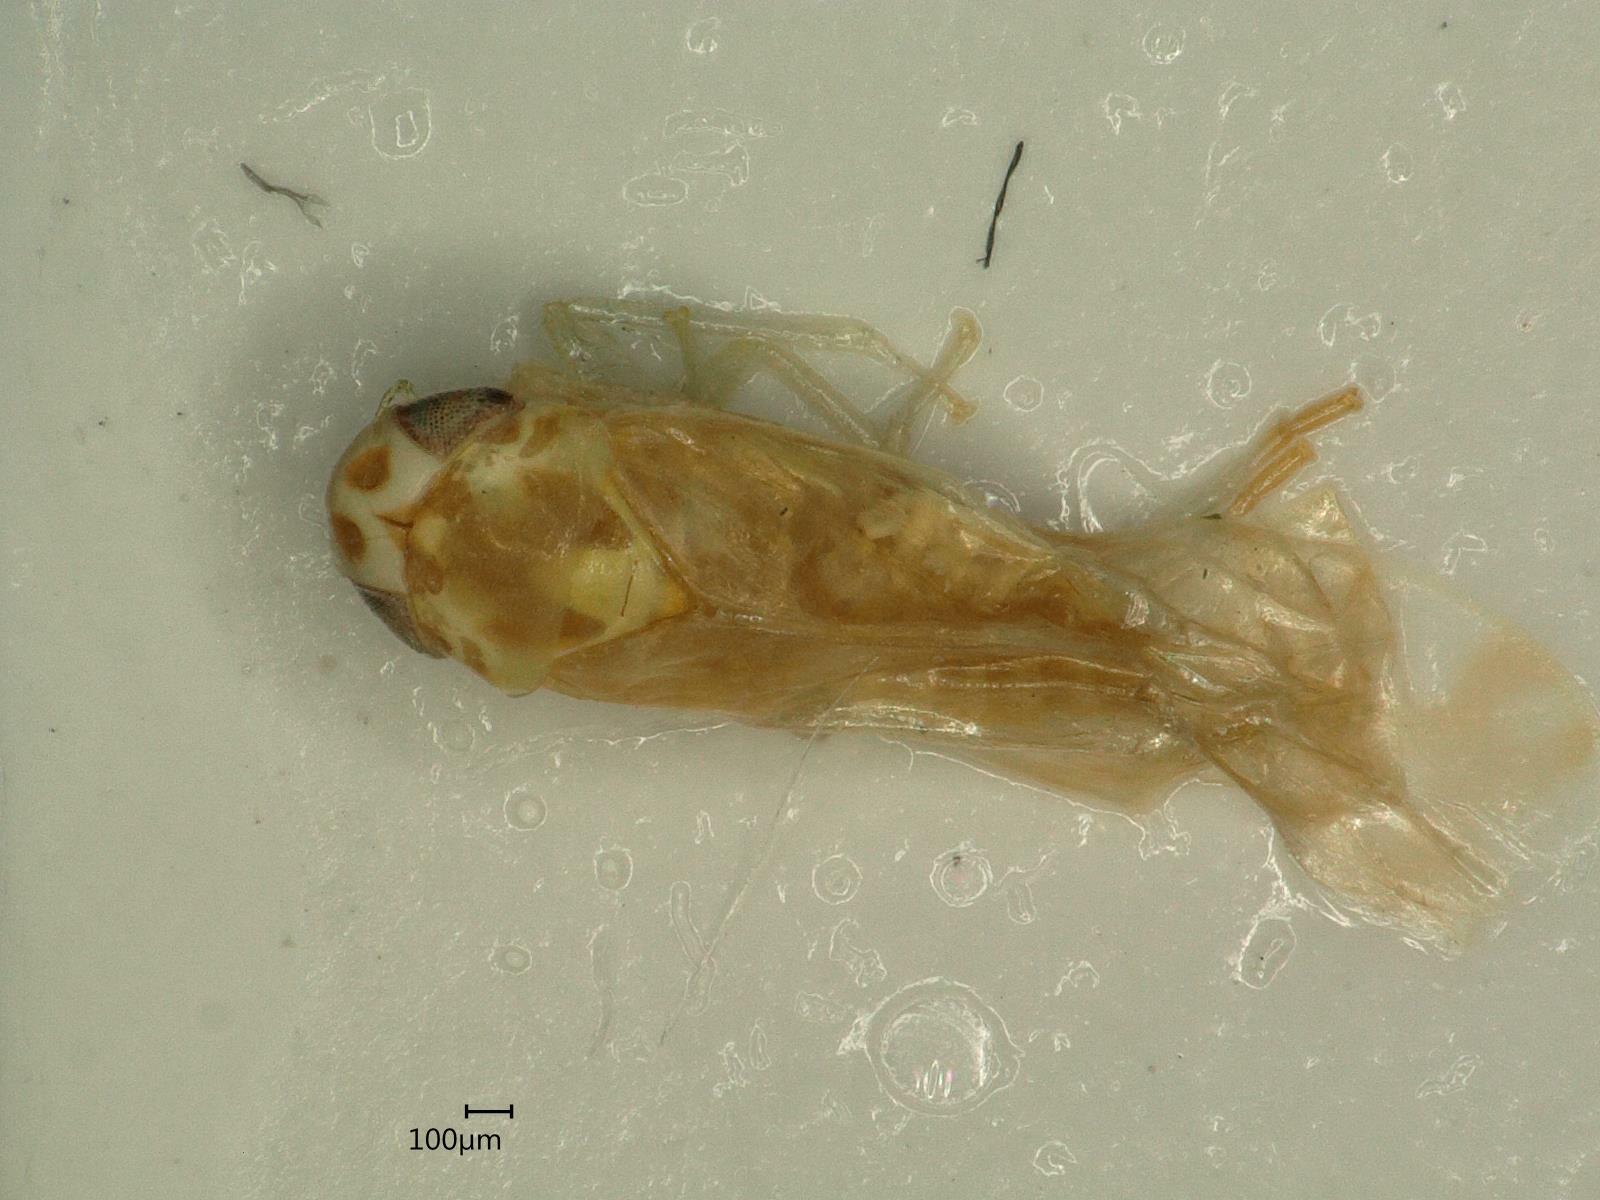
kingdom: Animalia
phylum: Arthropoda
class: Insecta
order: Hemiptera
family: Cicadellidae
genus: Eupteryx
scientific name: Eupteryx calcarata
